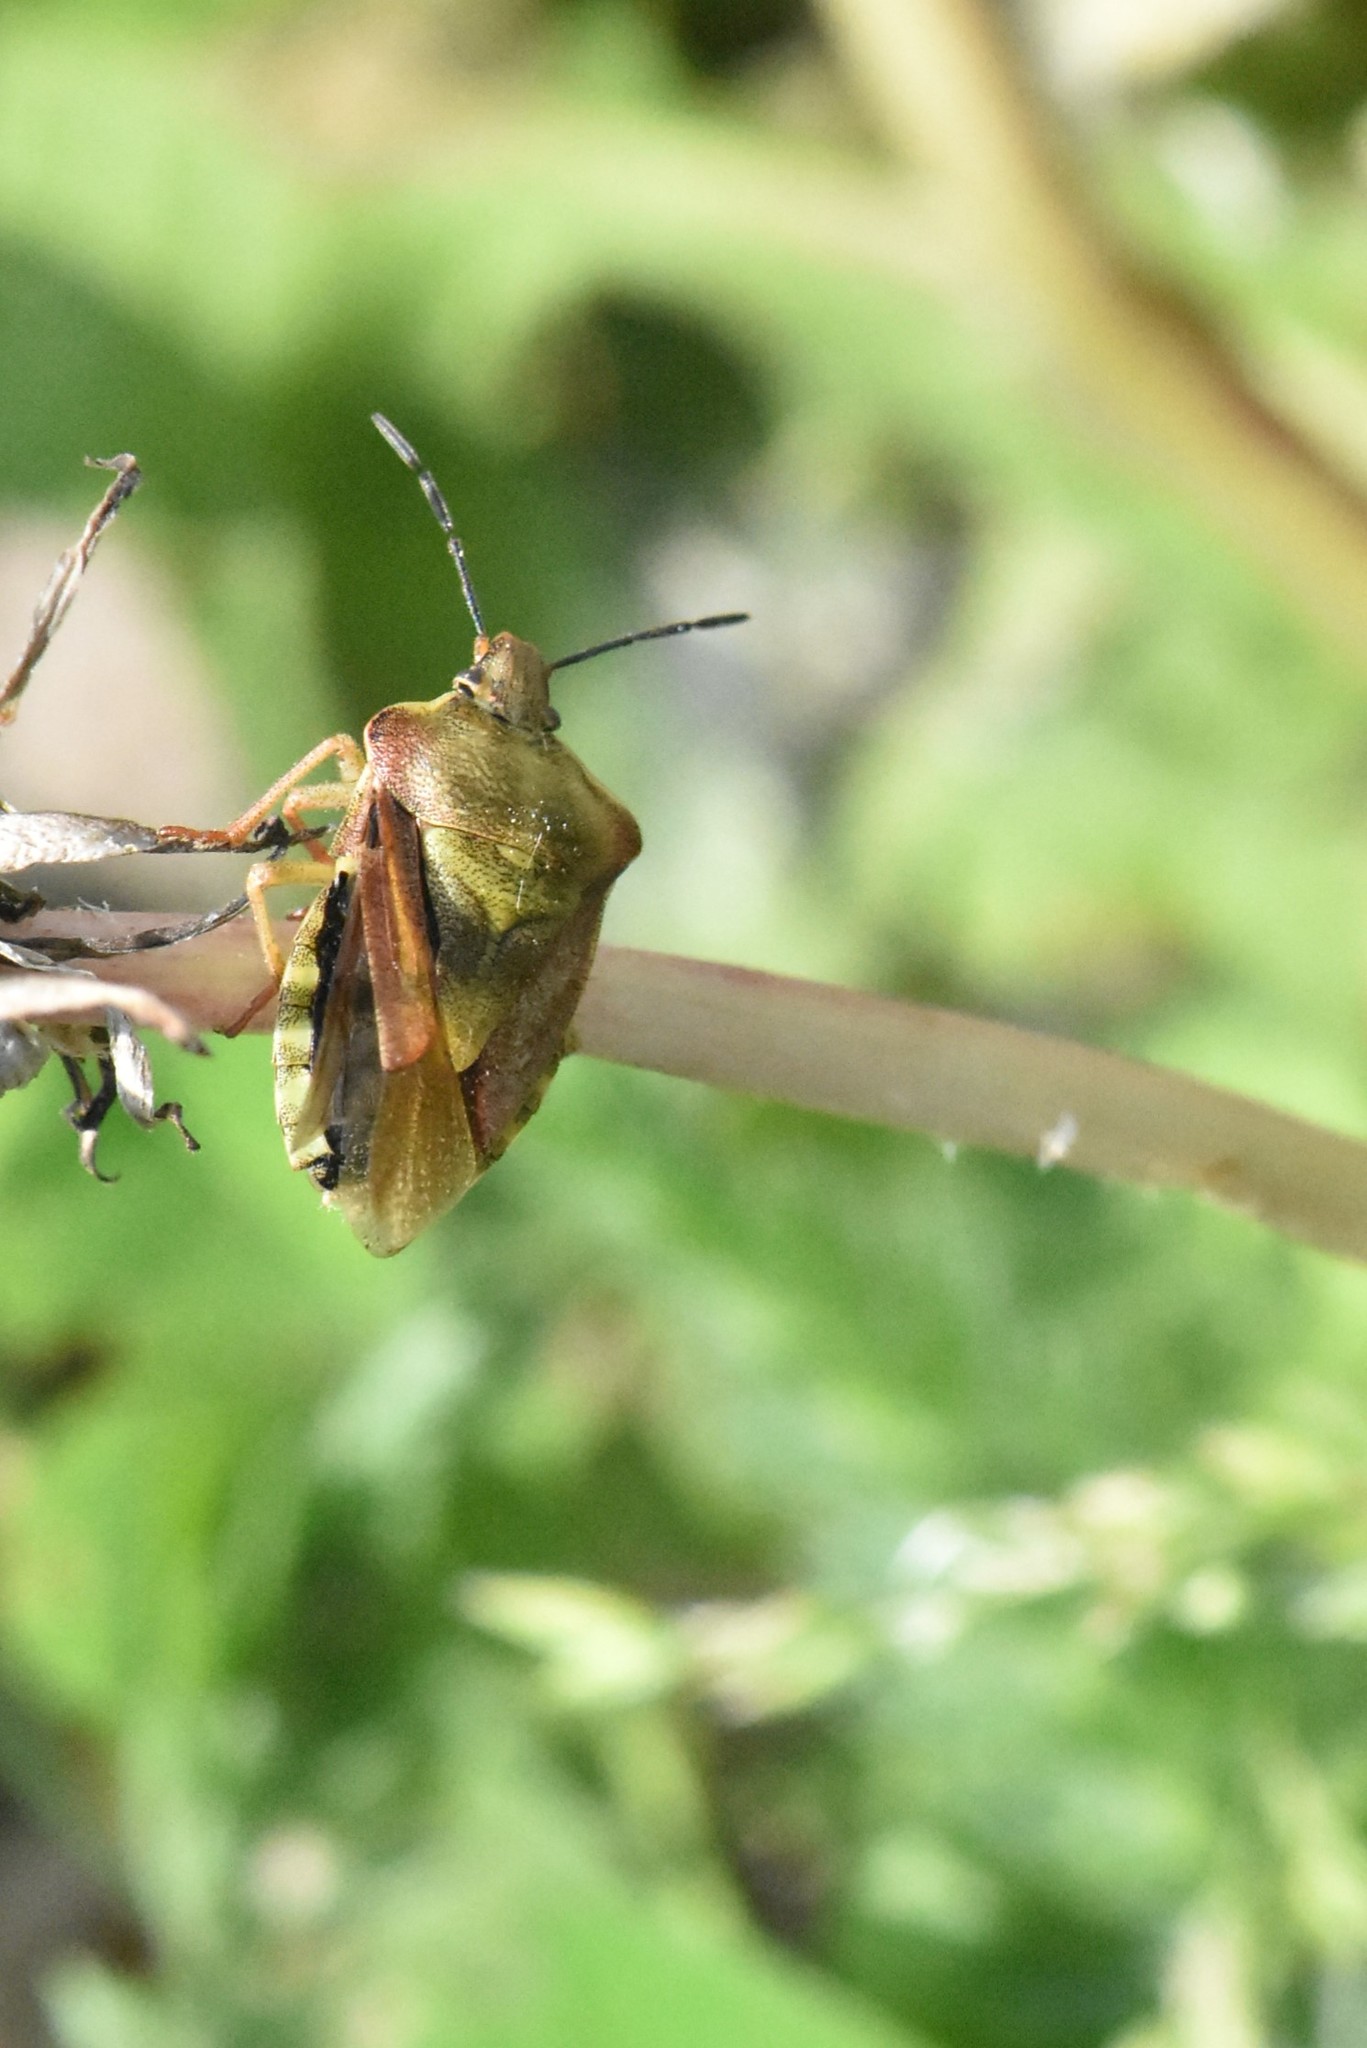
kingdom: Animalia
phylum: Arthropoda
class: Insecta
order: Hemiptera
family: Pentatomidae
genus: Carpocoris
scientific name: Carpocoris purpureipennis
